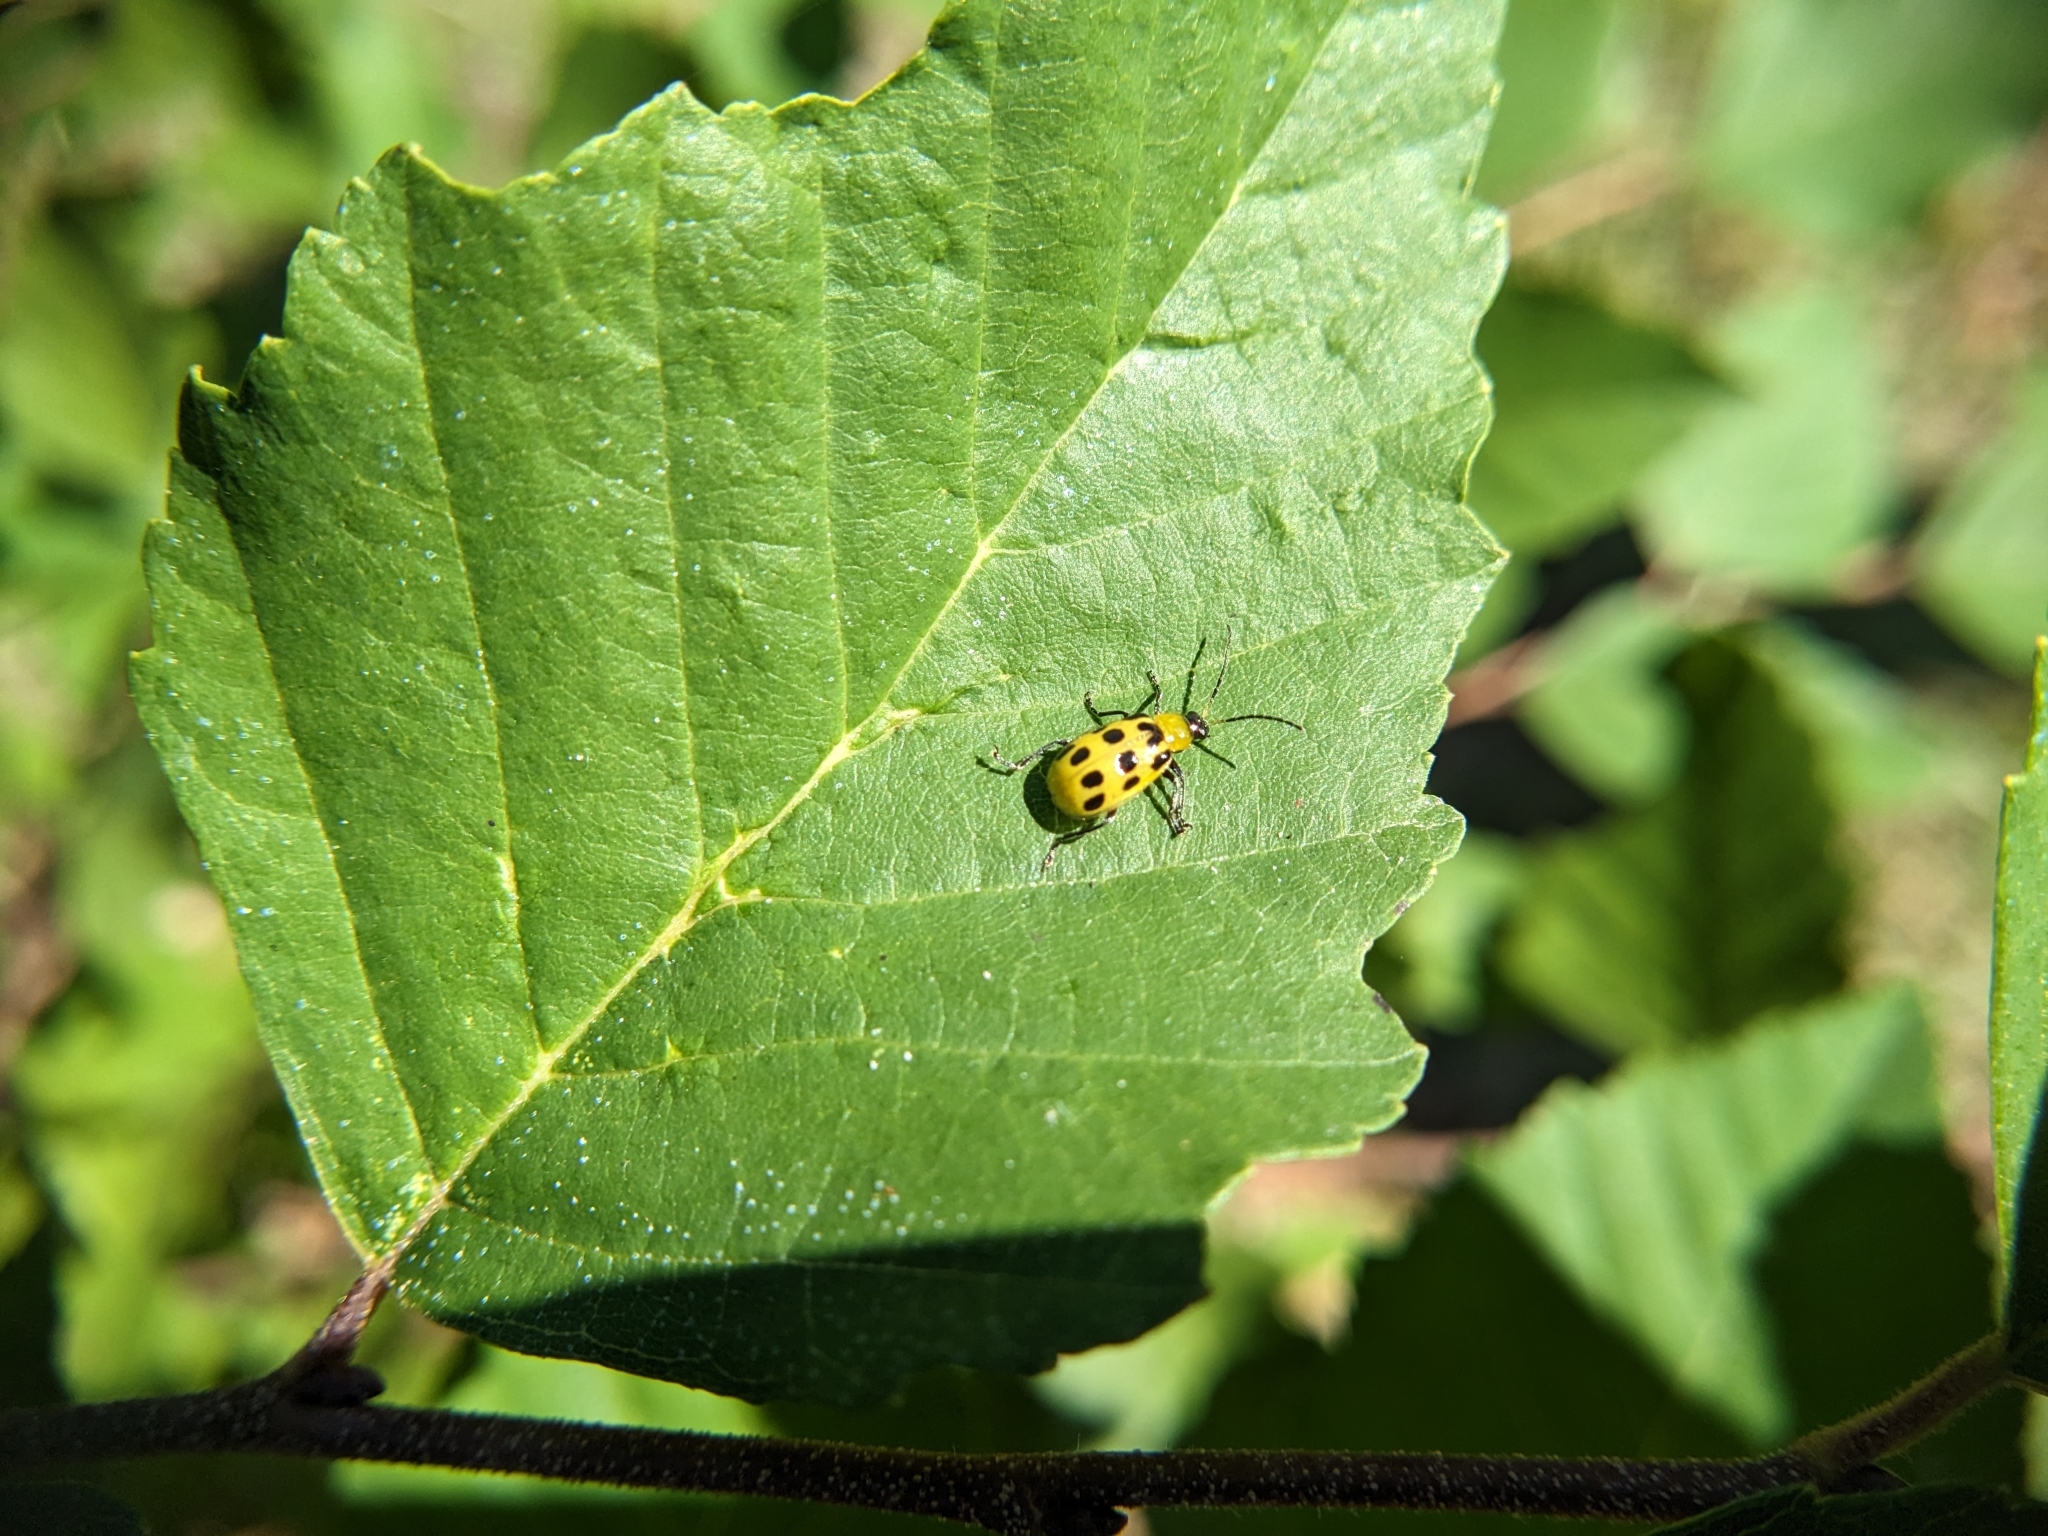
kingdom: Animalia
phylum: Arthropoda
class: Insecta
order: Coleoptera
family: Chrysomelidae
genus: Diabrotica
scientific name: Diabrotica undecimpunctata
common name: Spotted cucumber beetle
